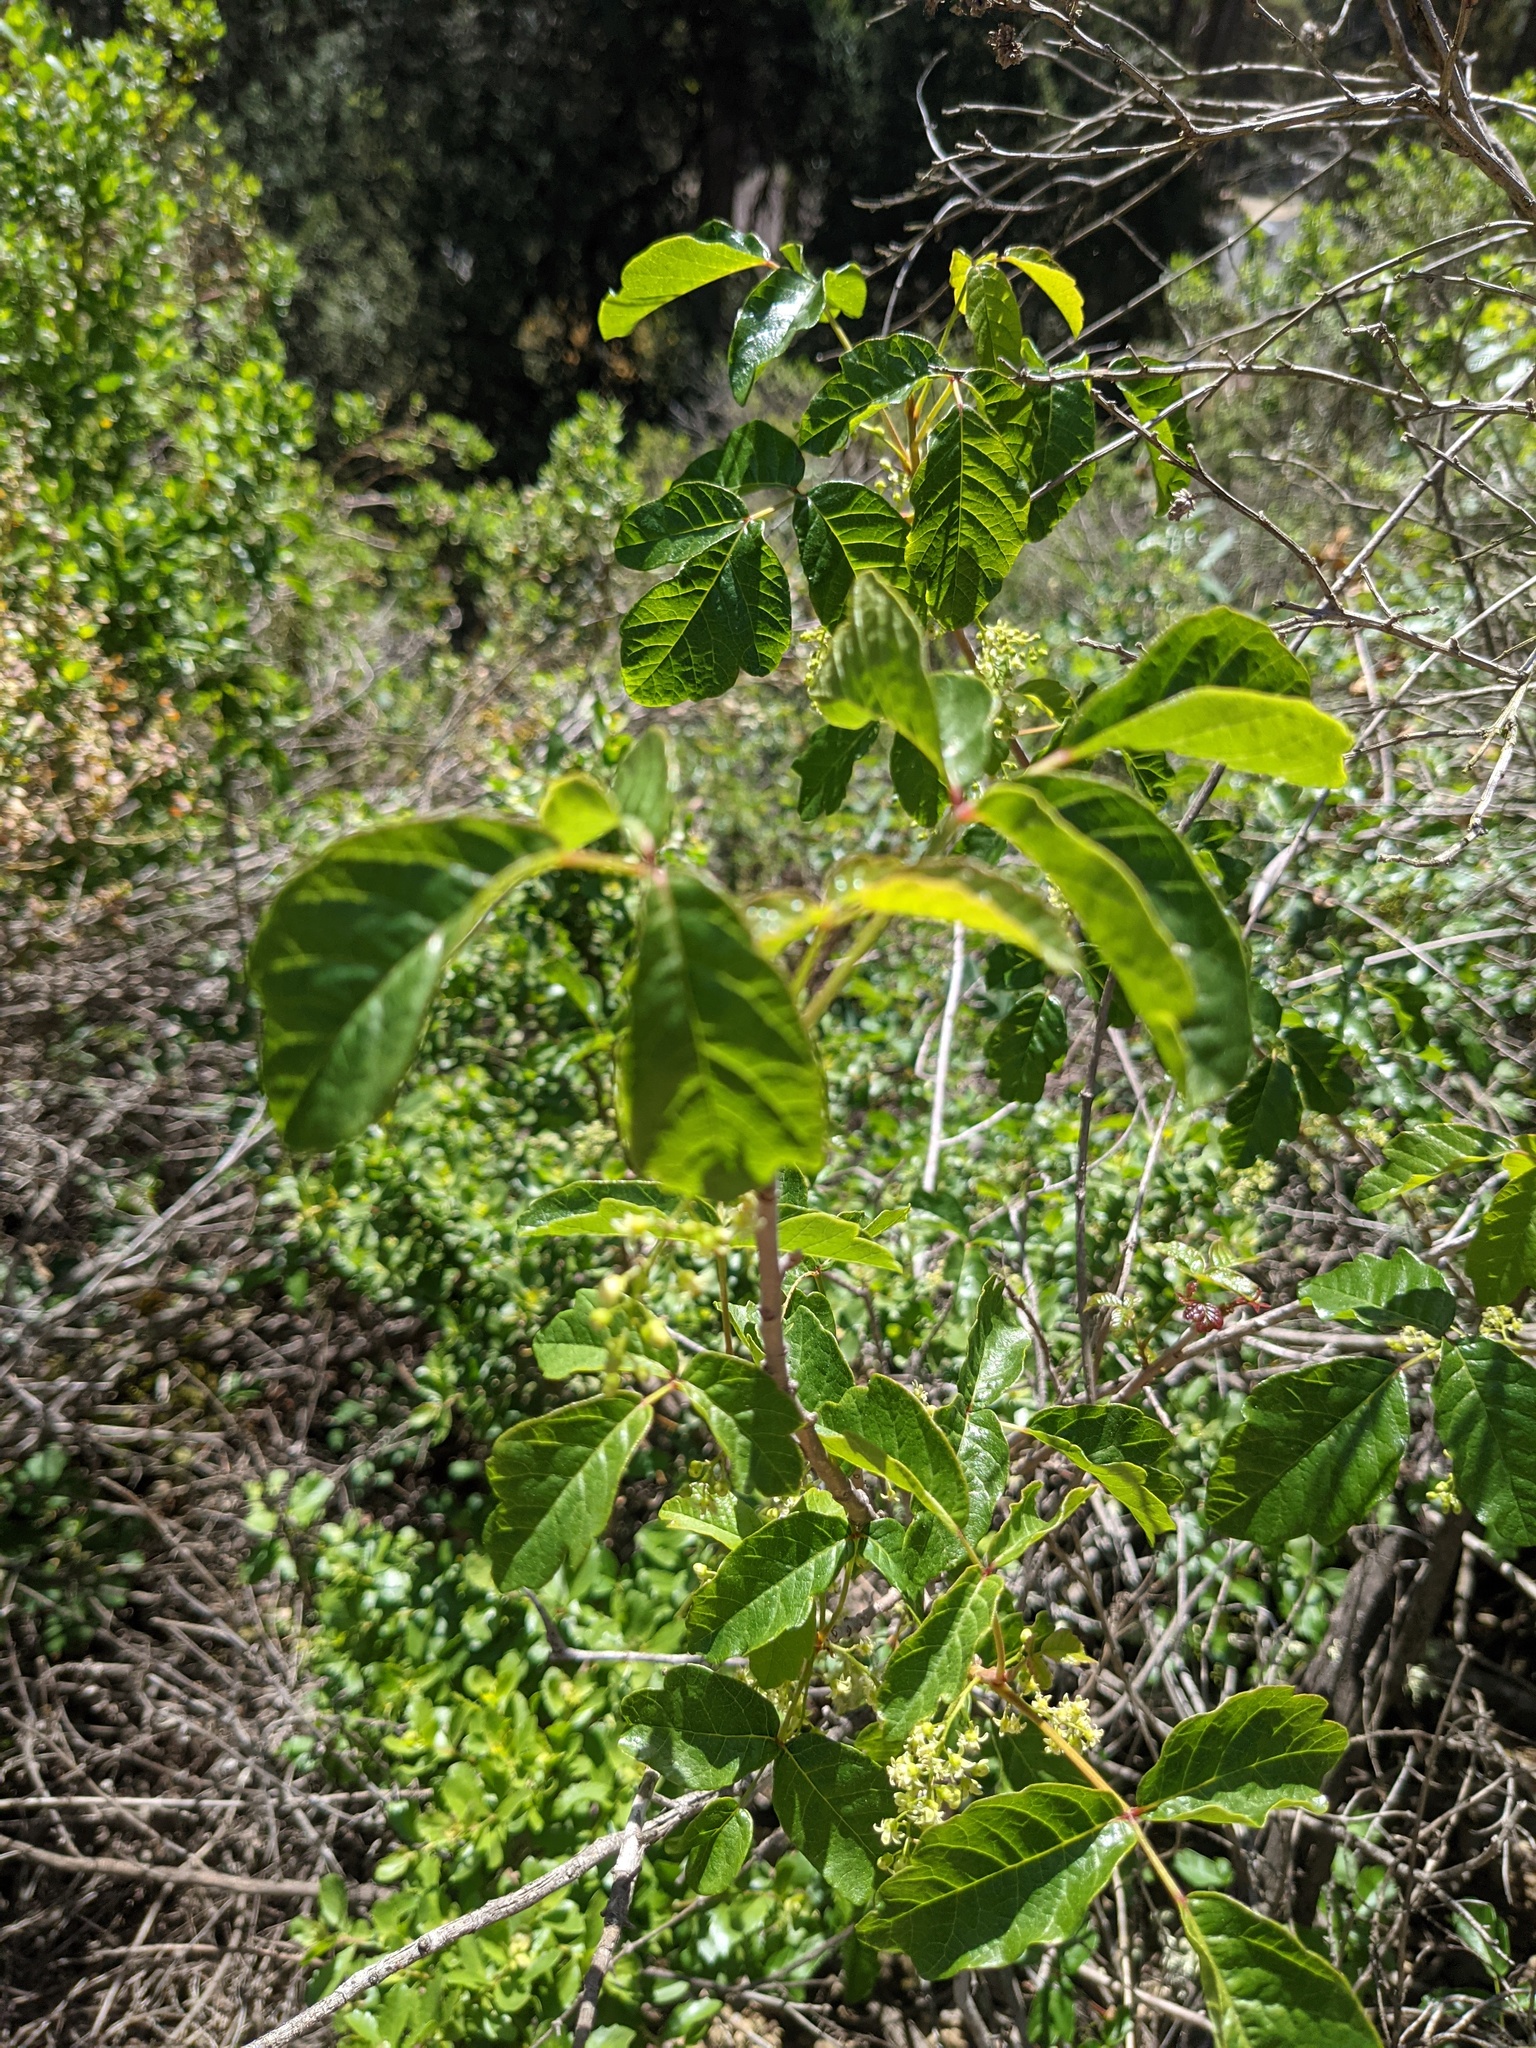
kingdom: Plantae
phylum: Tracheophyta
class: Magnoliopsida
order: Sapindales
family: Anacardiaceae
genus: Toxicodendron
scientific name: Toxicodendron diversilobum
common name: Pacific poison-oak
